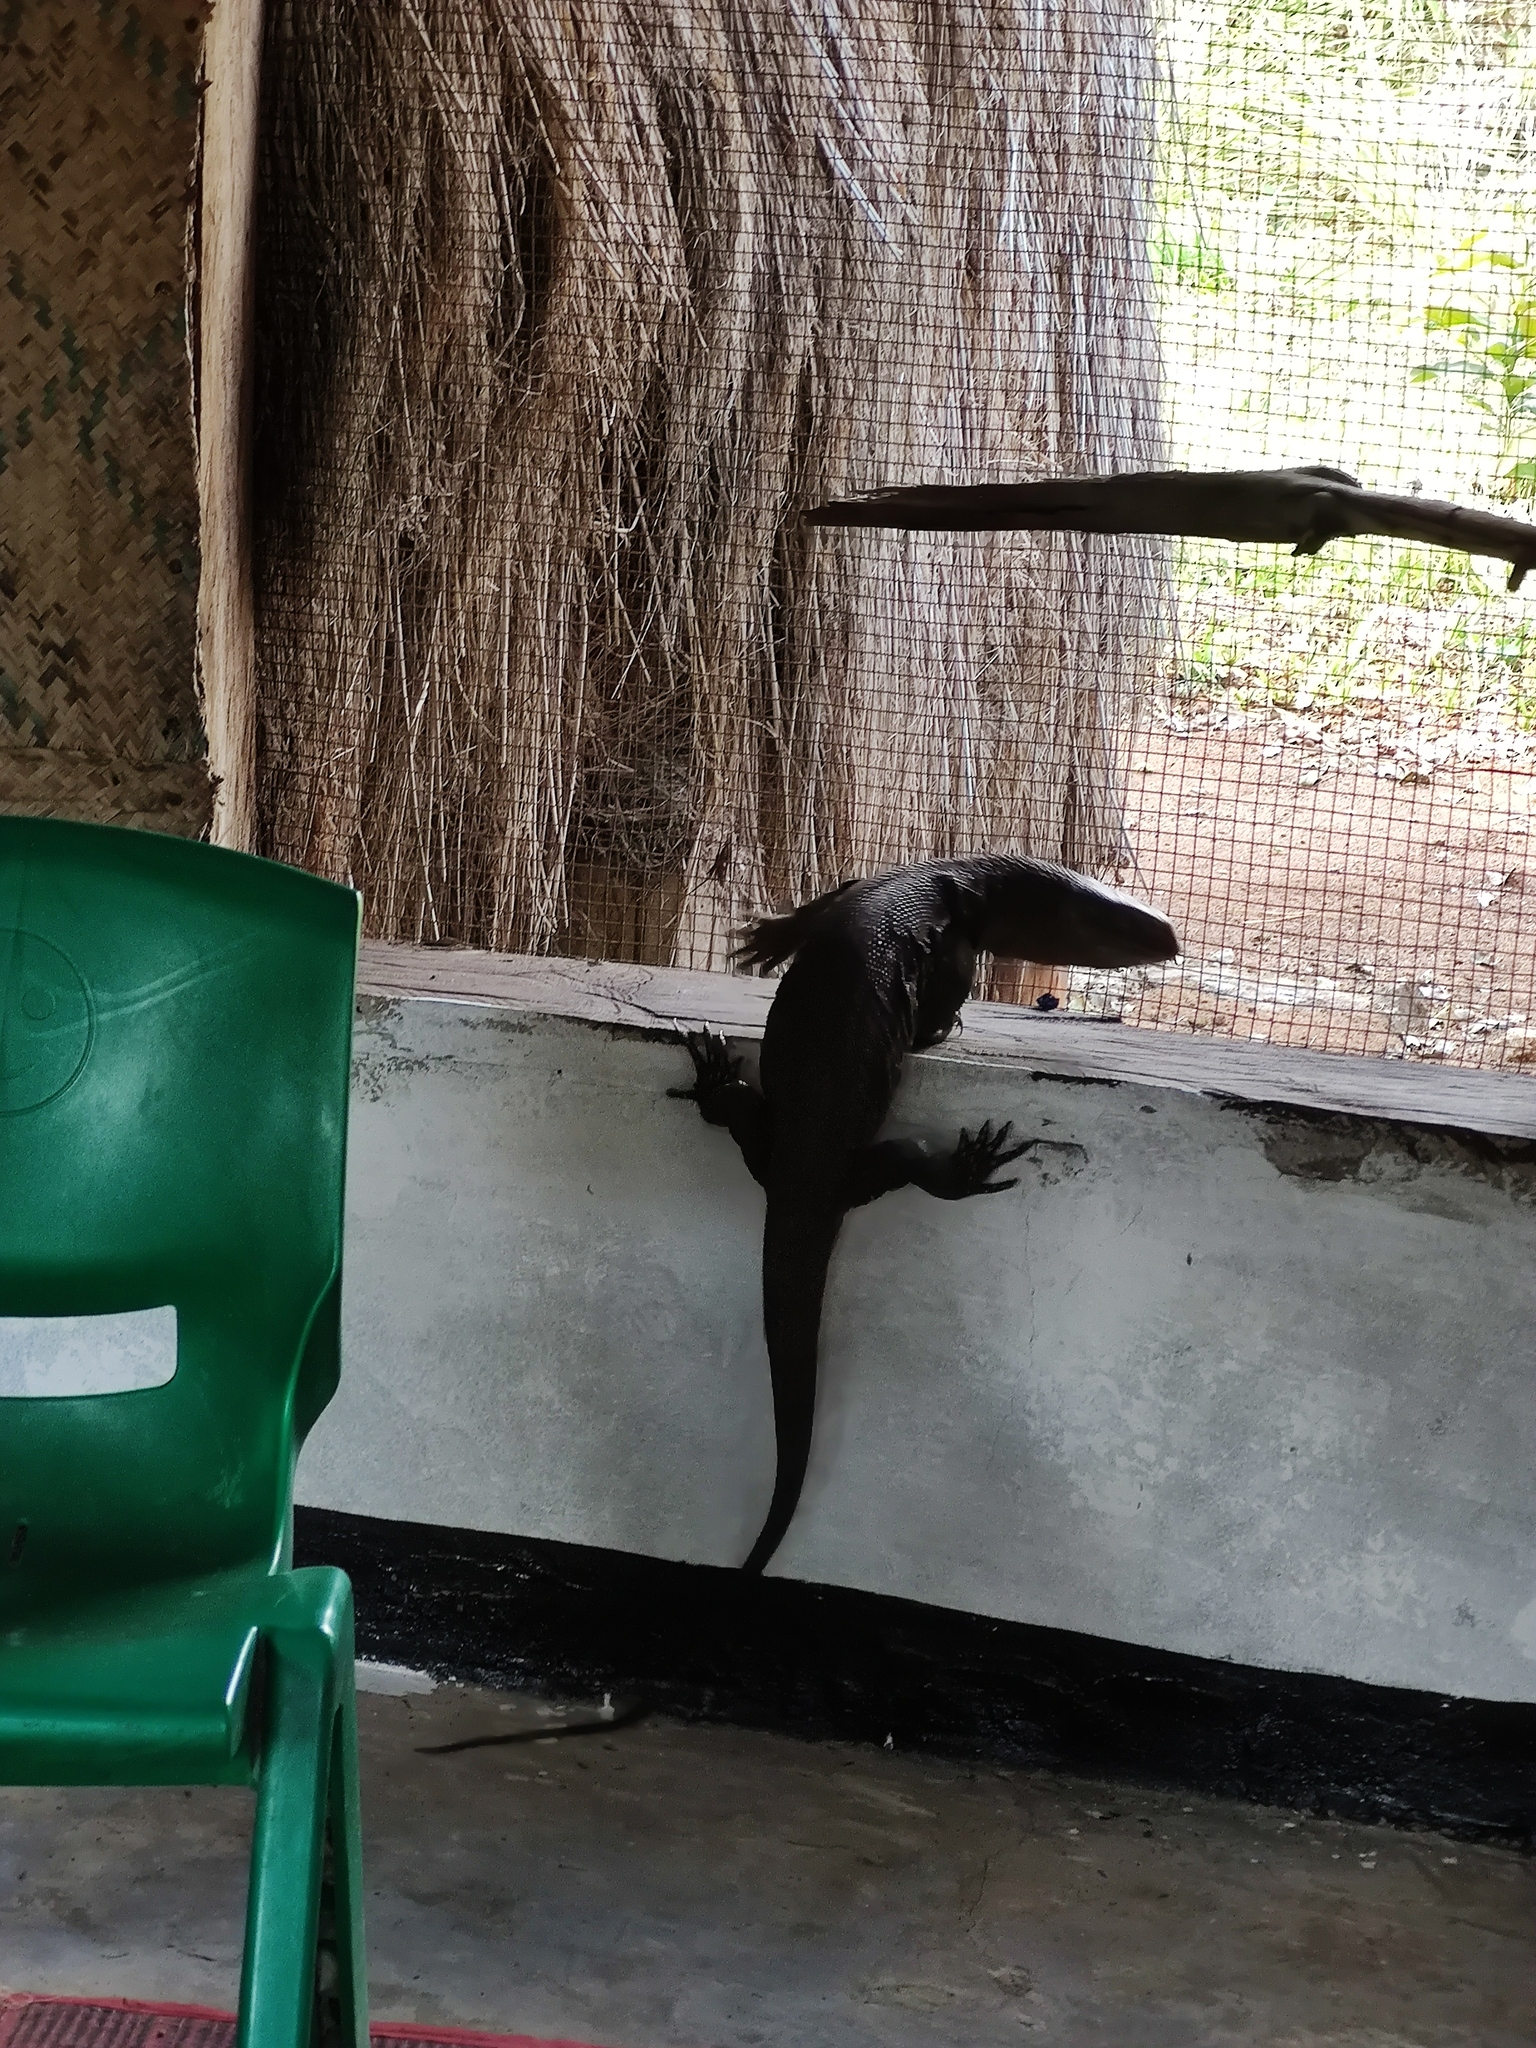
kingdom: Animalia
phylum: Chordata
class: Squamata
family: Varanidae
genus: Varanus
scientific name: Varanus albigularis
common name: White-throated monitor
